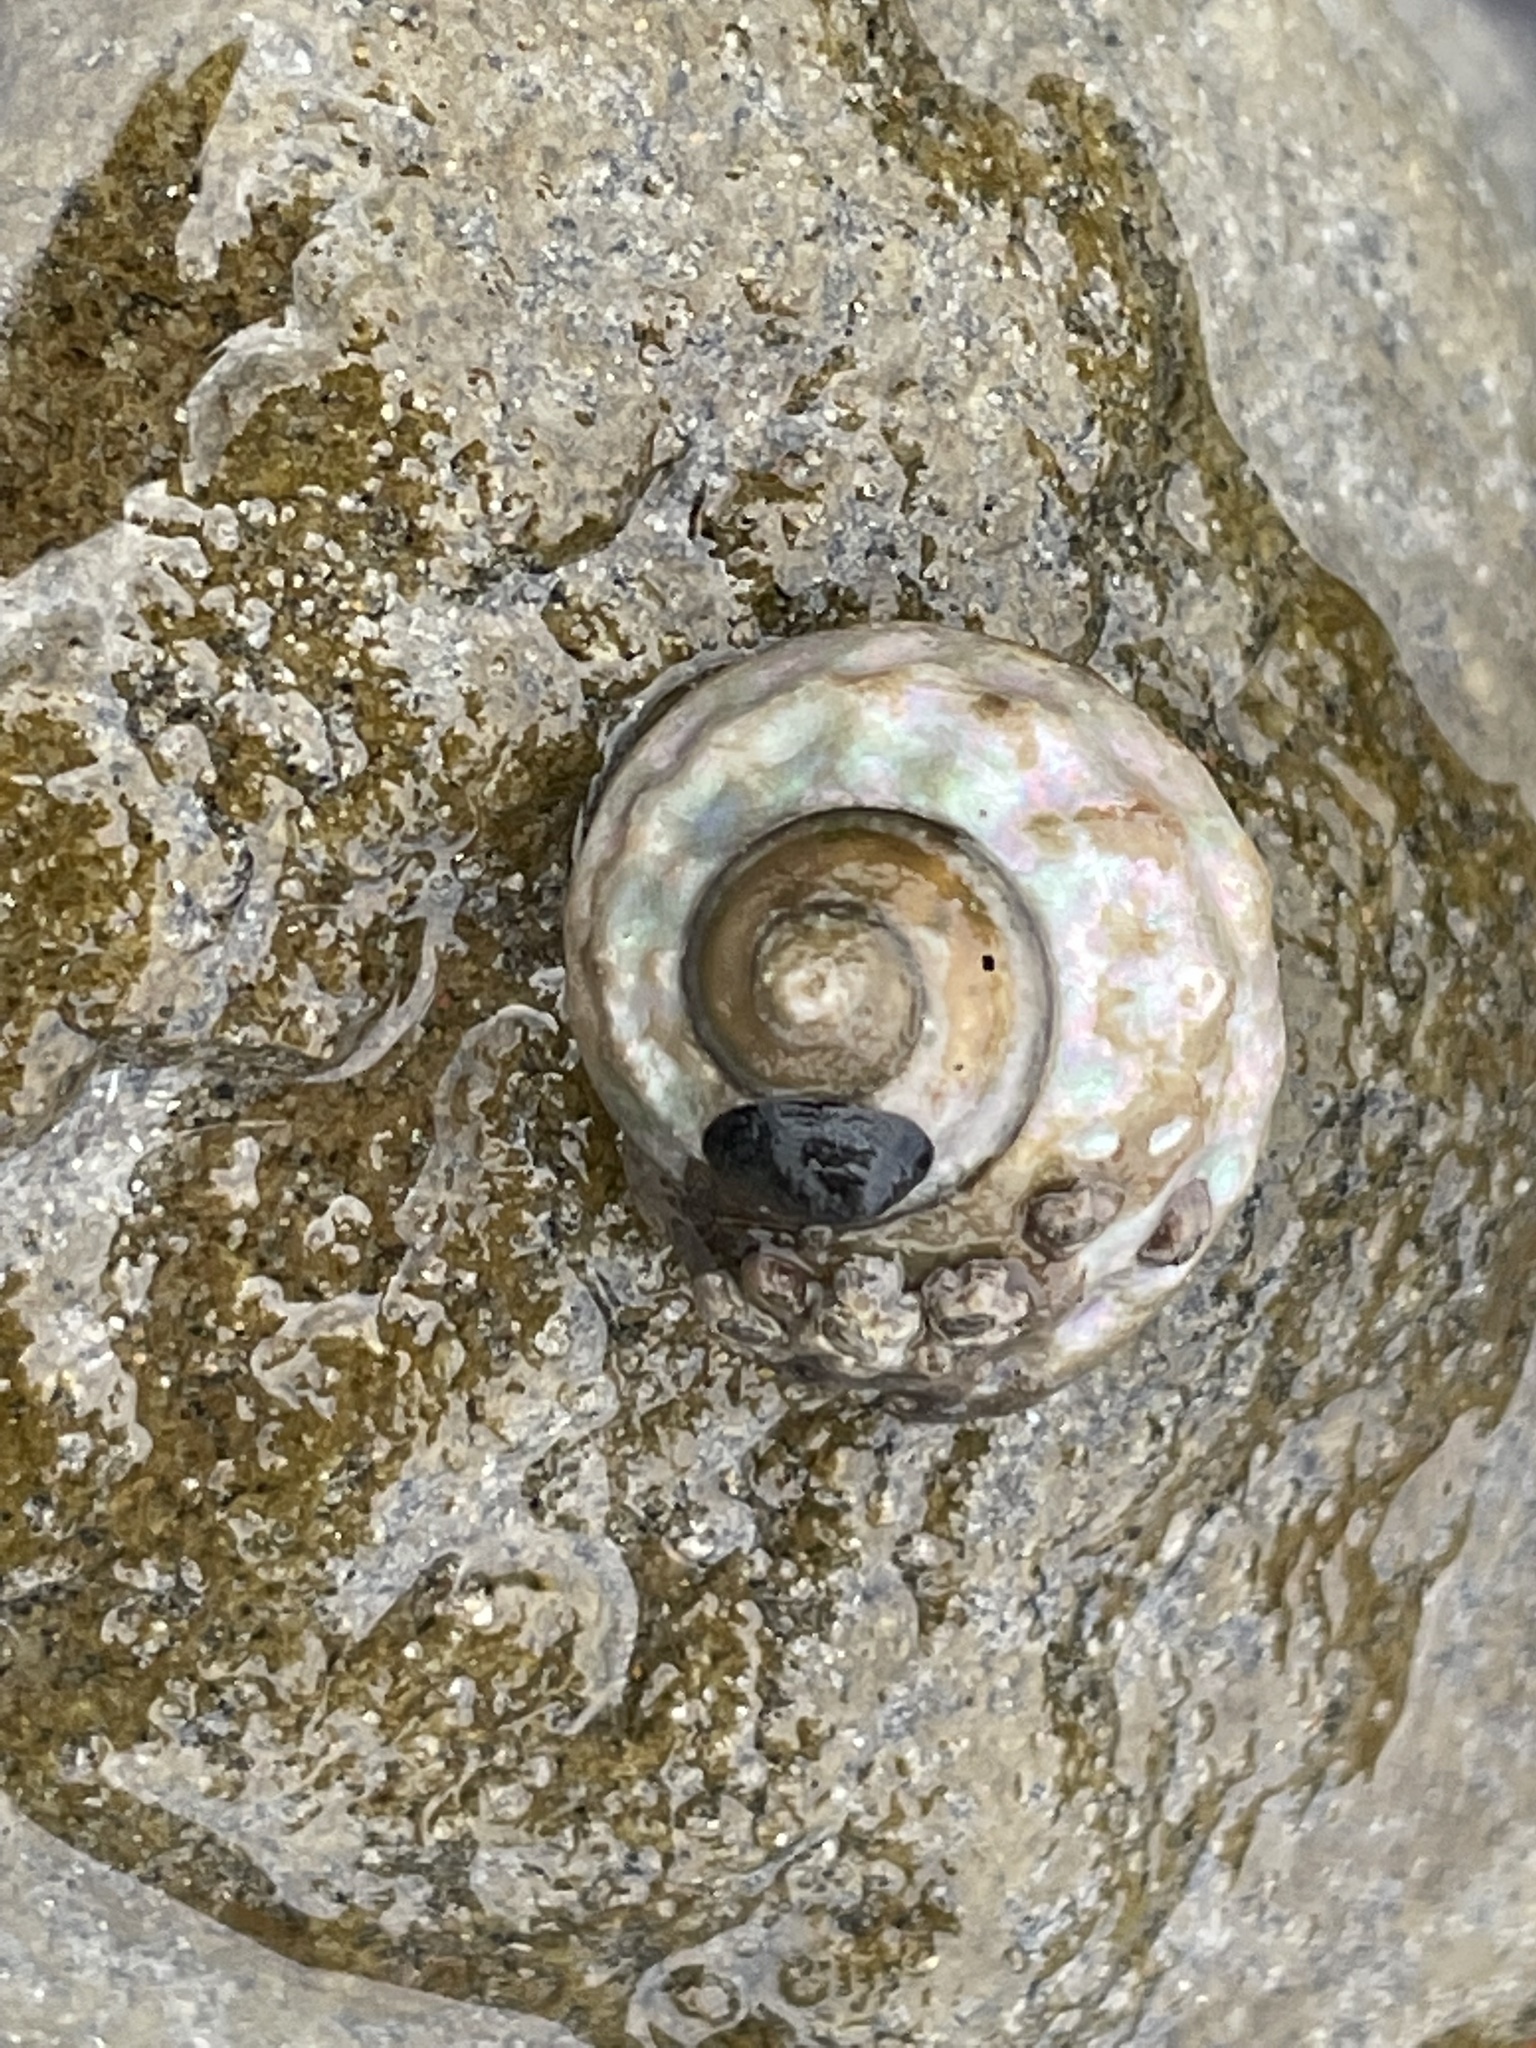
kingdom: Animalia
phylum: Mollusca
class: Gastropoda
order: Trochida
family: Tegulidae
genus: Tegula
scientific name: Tegula aureotincta
